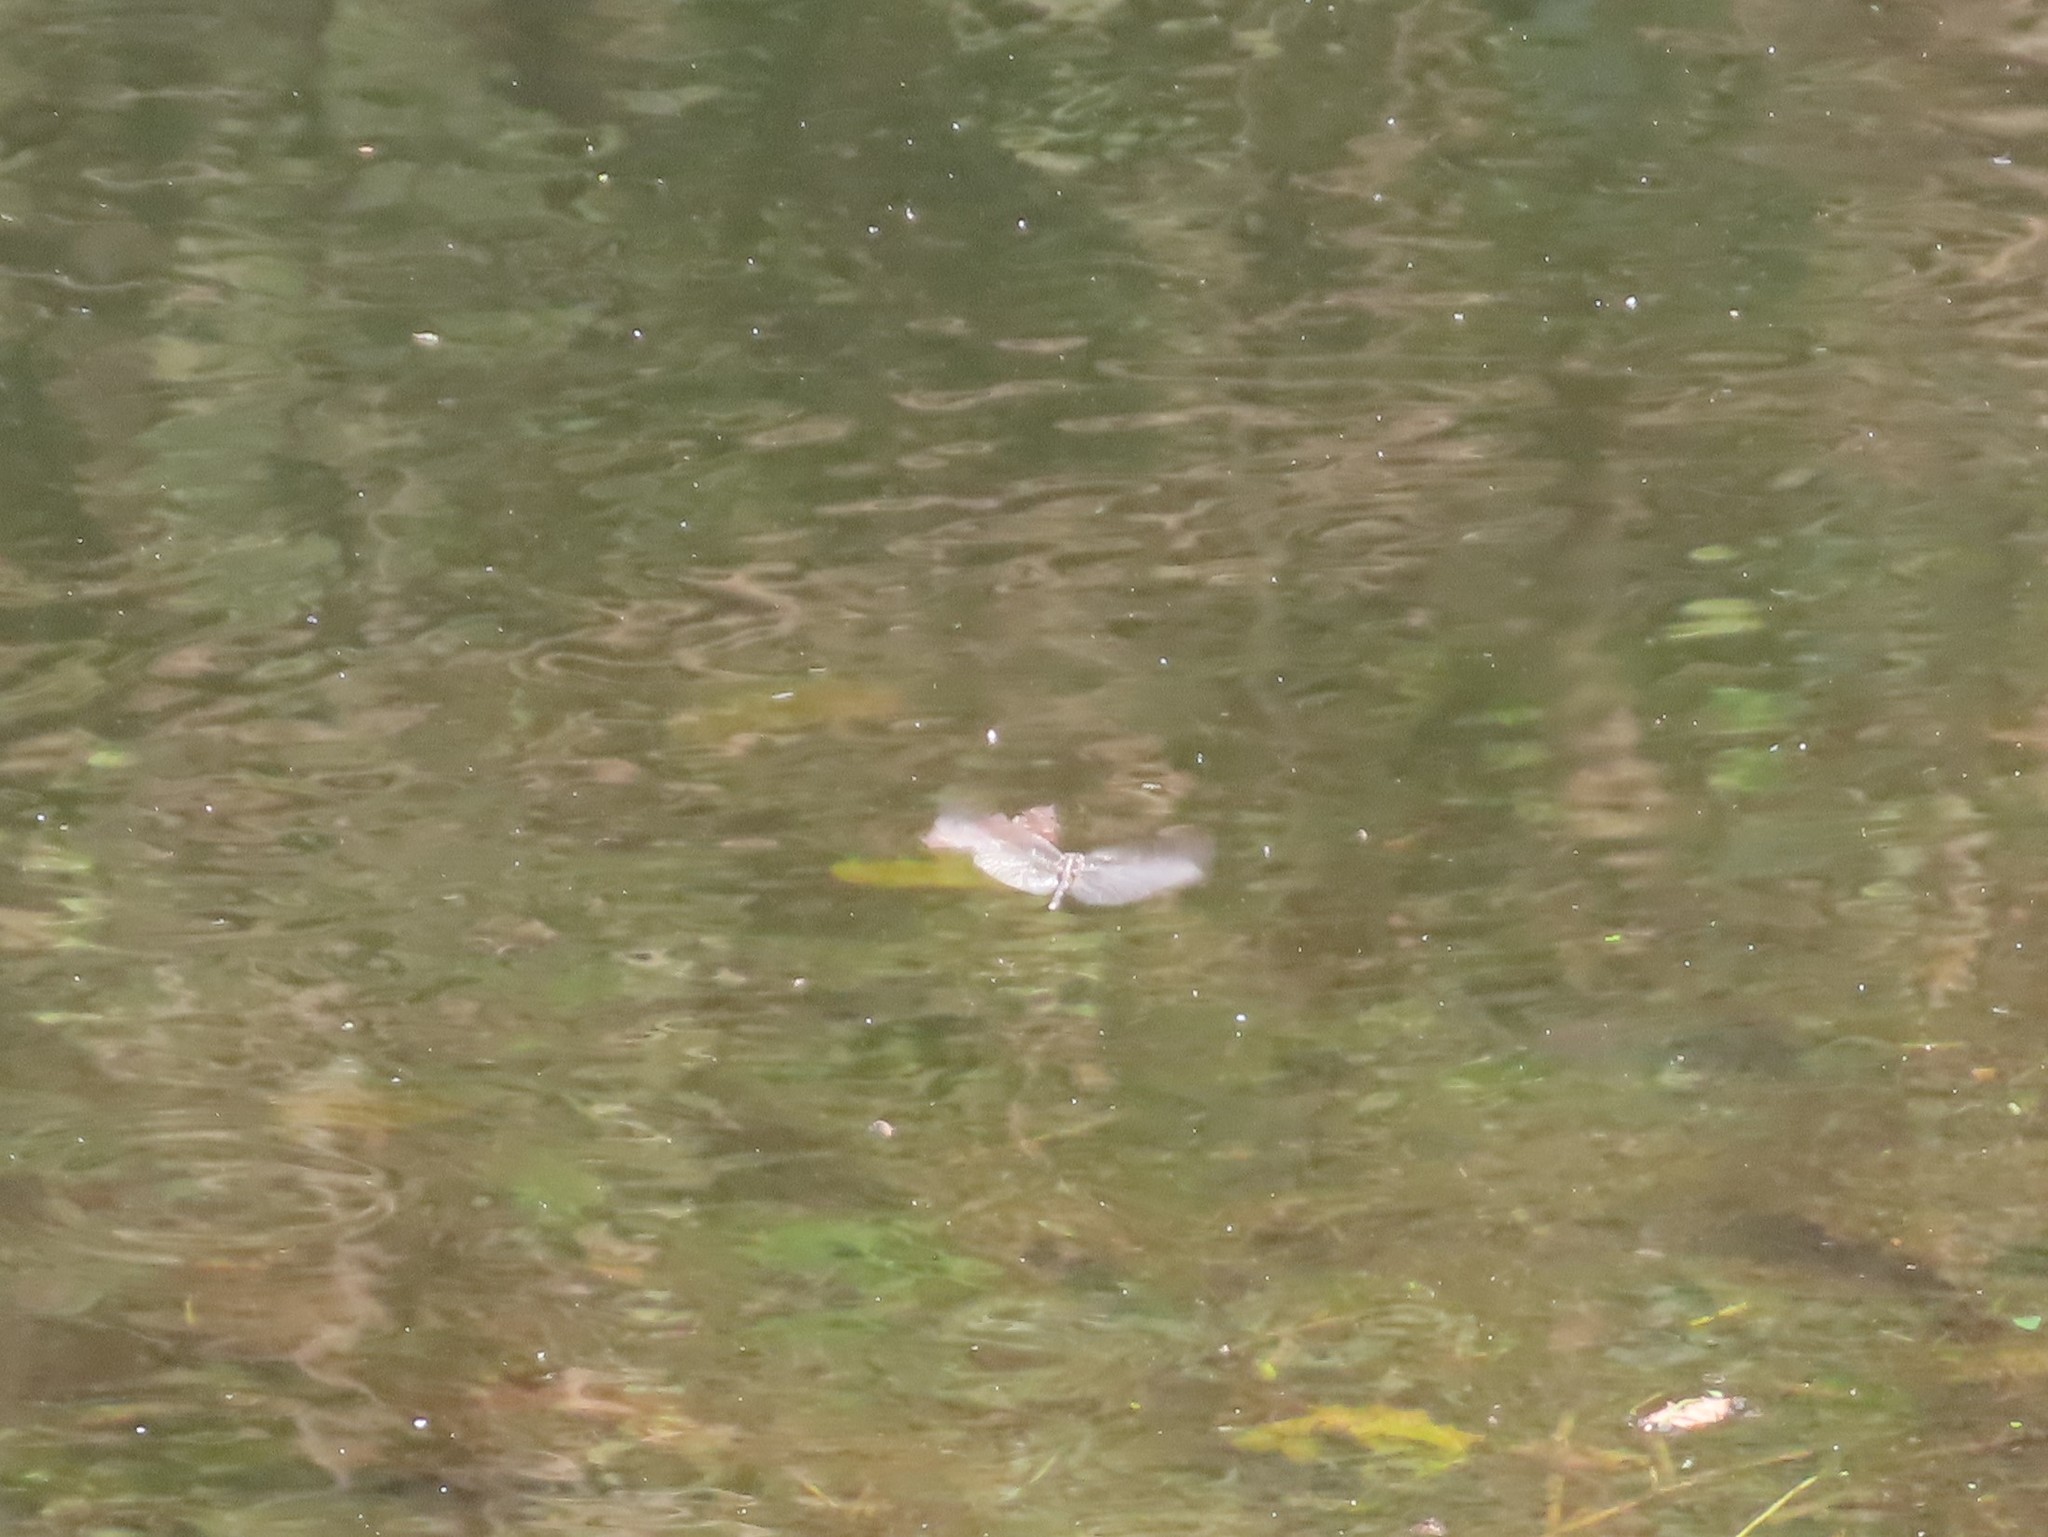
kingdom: Animalia
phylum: Arthropoda
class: Insecta
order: Odonata
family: Libellulidae
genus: Orthetrum
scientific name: Orthetrum sabina
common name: Slender skimmer
